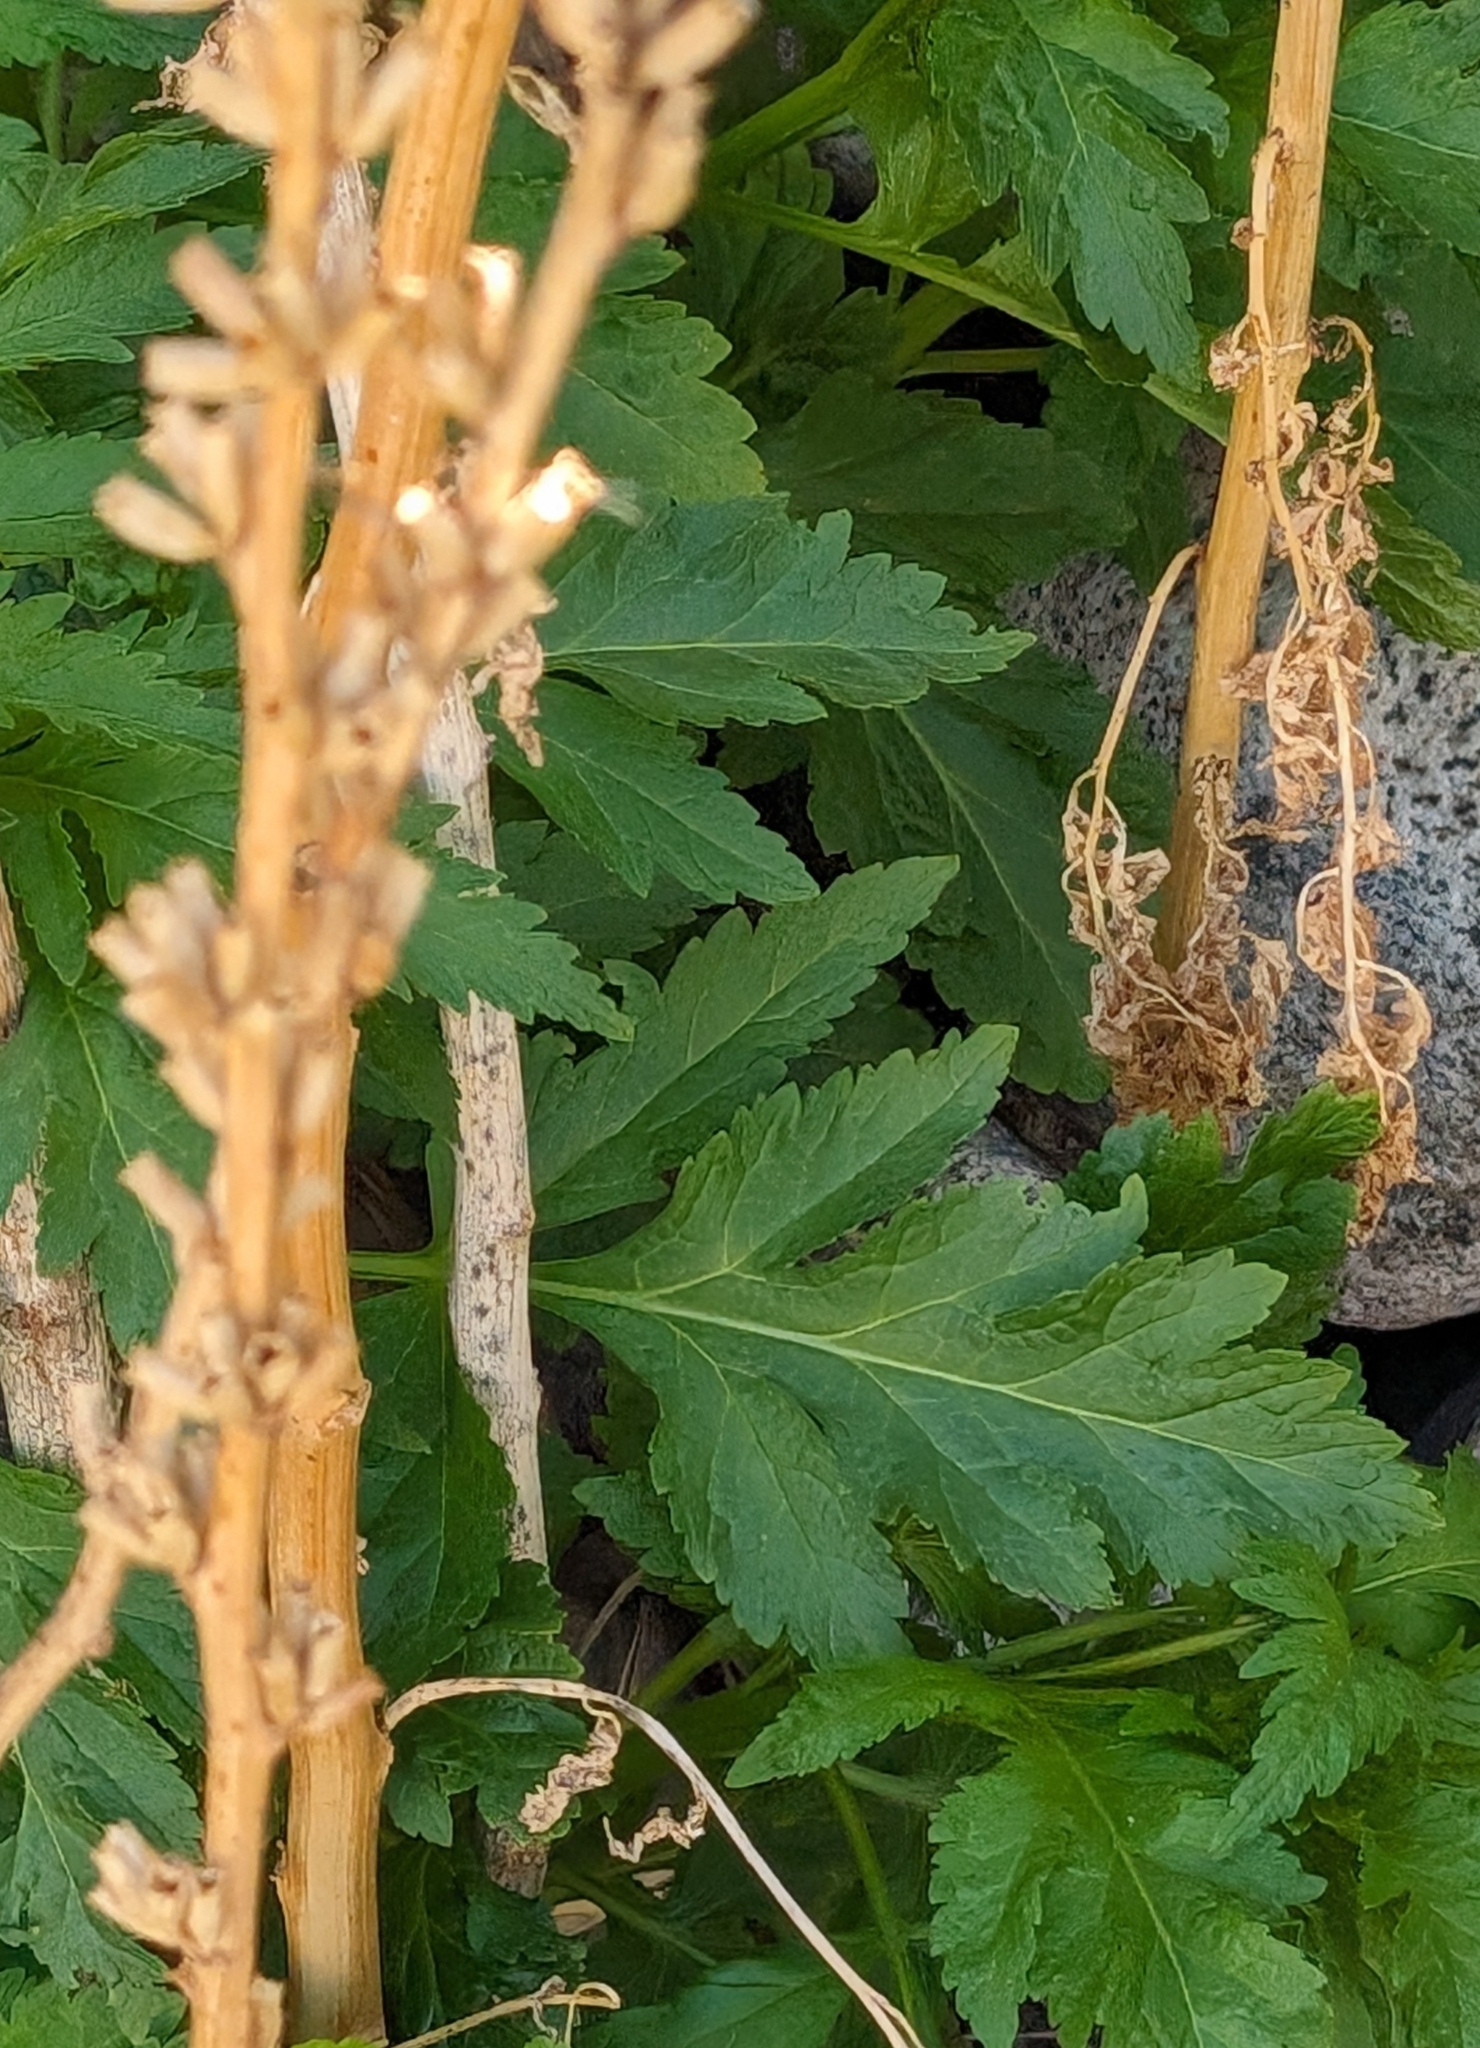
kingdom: Plantae
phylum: Tracheophyta
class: Magnoliopsida
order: Cucurbitales
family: Datiscaceae
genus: Datisca
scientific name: Datisca glomerata
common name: Durango-root
